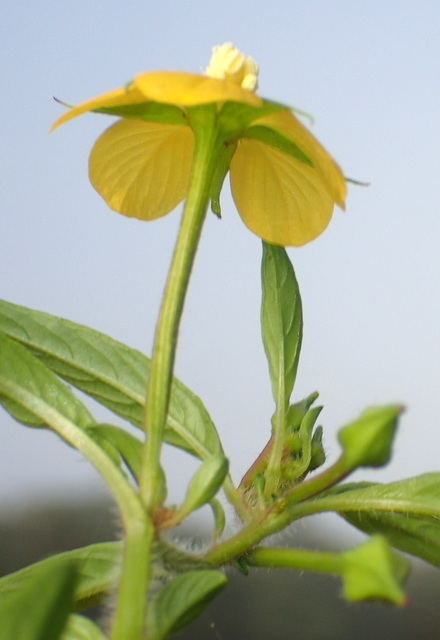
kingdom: Plantae
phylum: Tracheophyta
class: Magnoliopsida
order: Myrtales
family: Onagraceae
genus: Ludwigia
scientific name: Ludwigia leptocarpa
